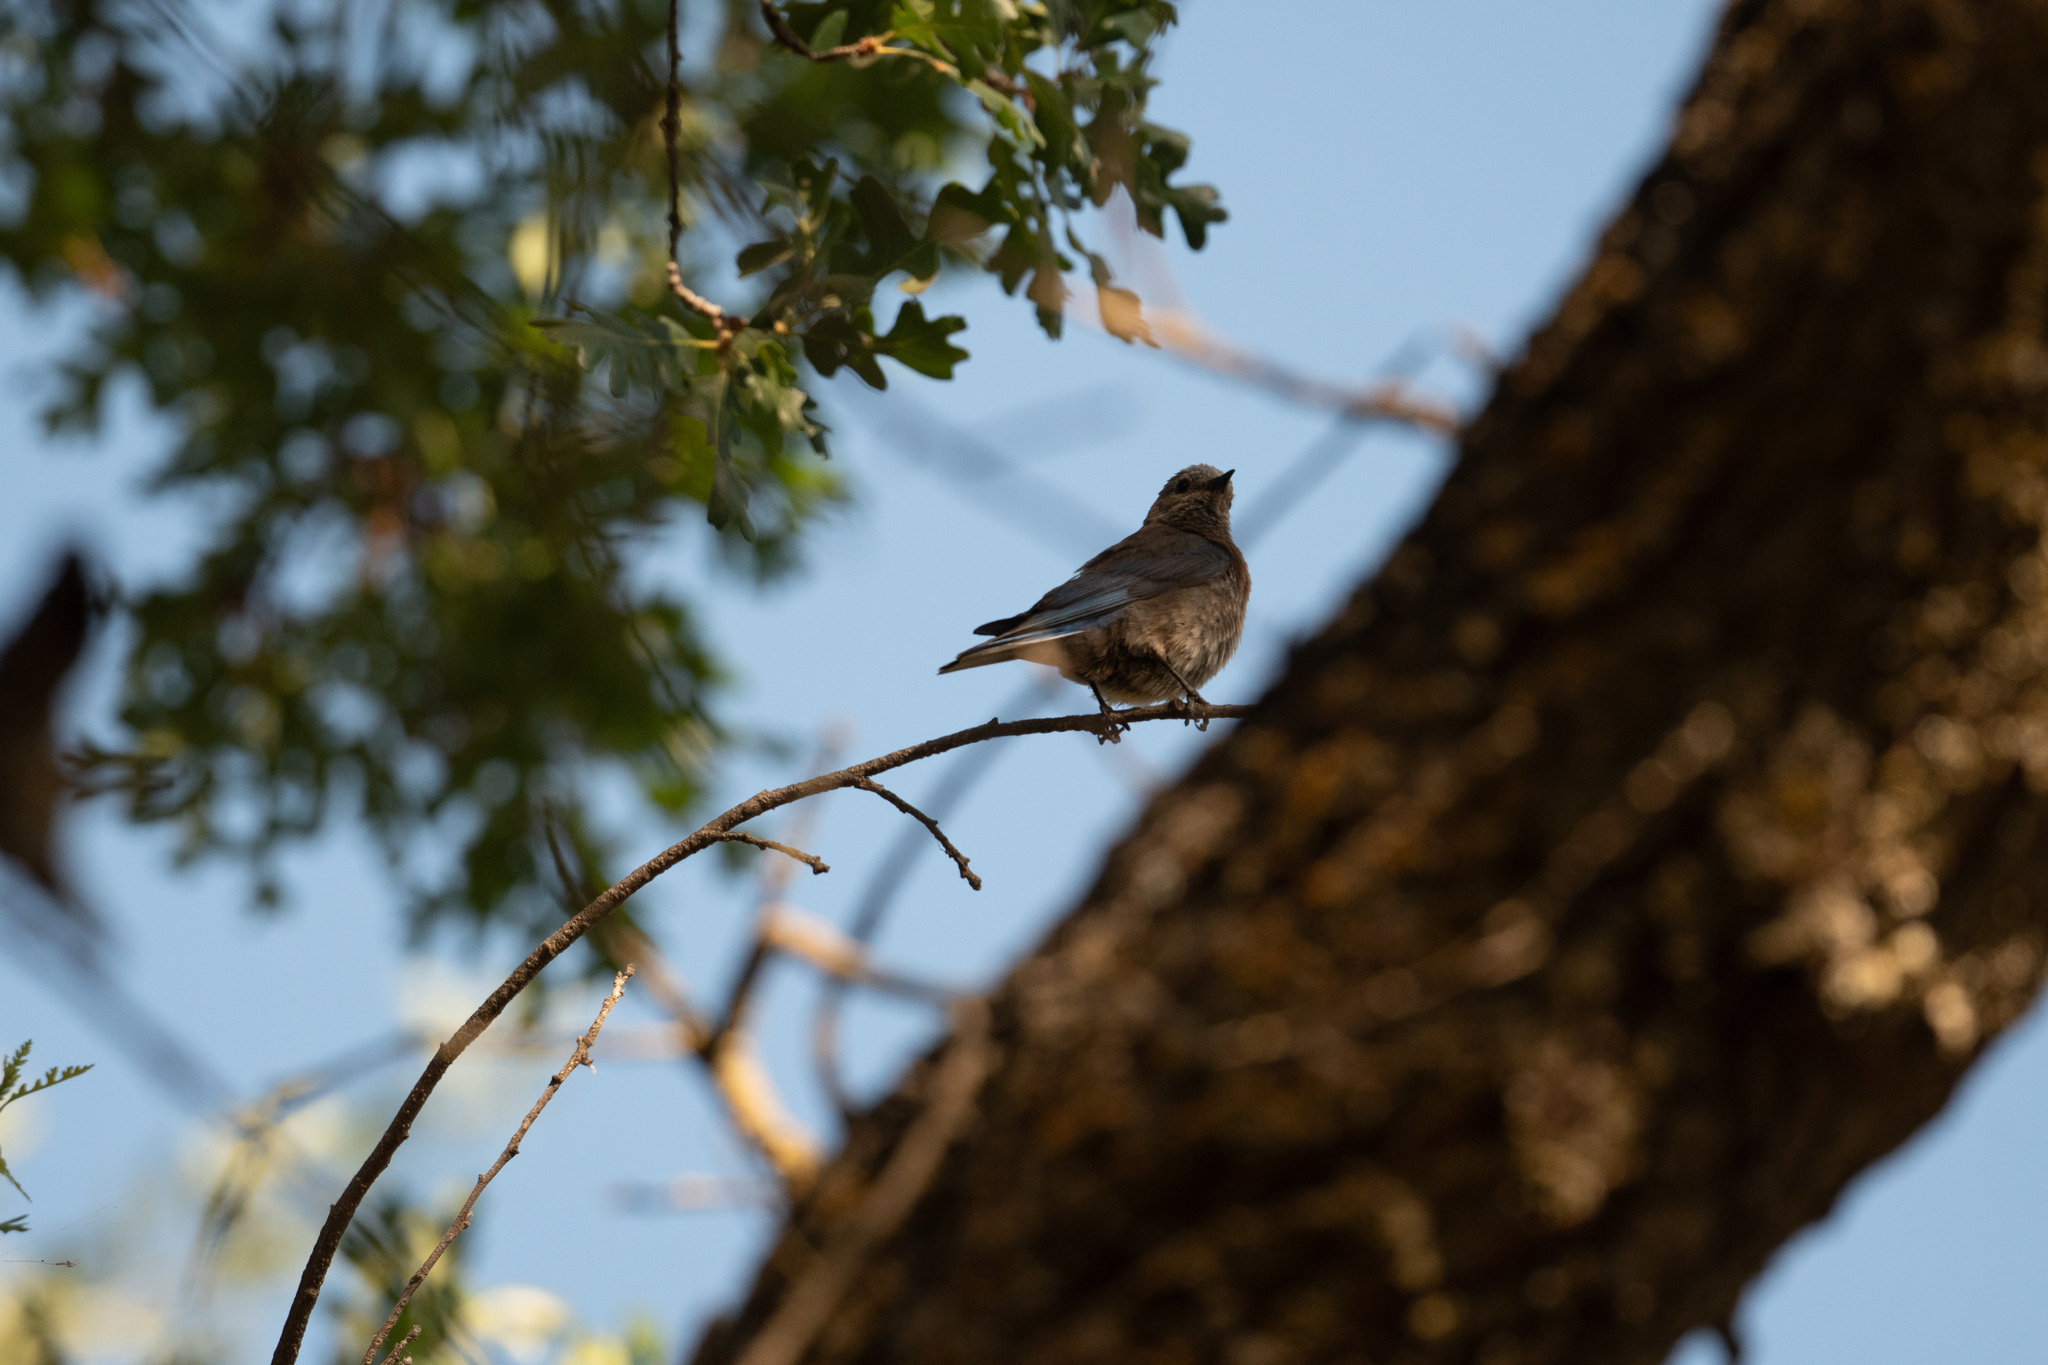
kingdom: Animalia
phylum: Chordata
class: Aves
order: Passeriformes
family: Turdidae
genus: Sialia
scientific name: Sialia mexicana
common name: Western bluebird
